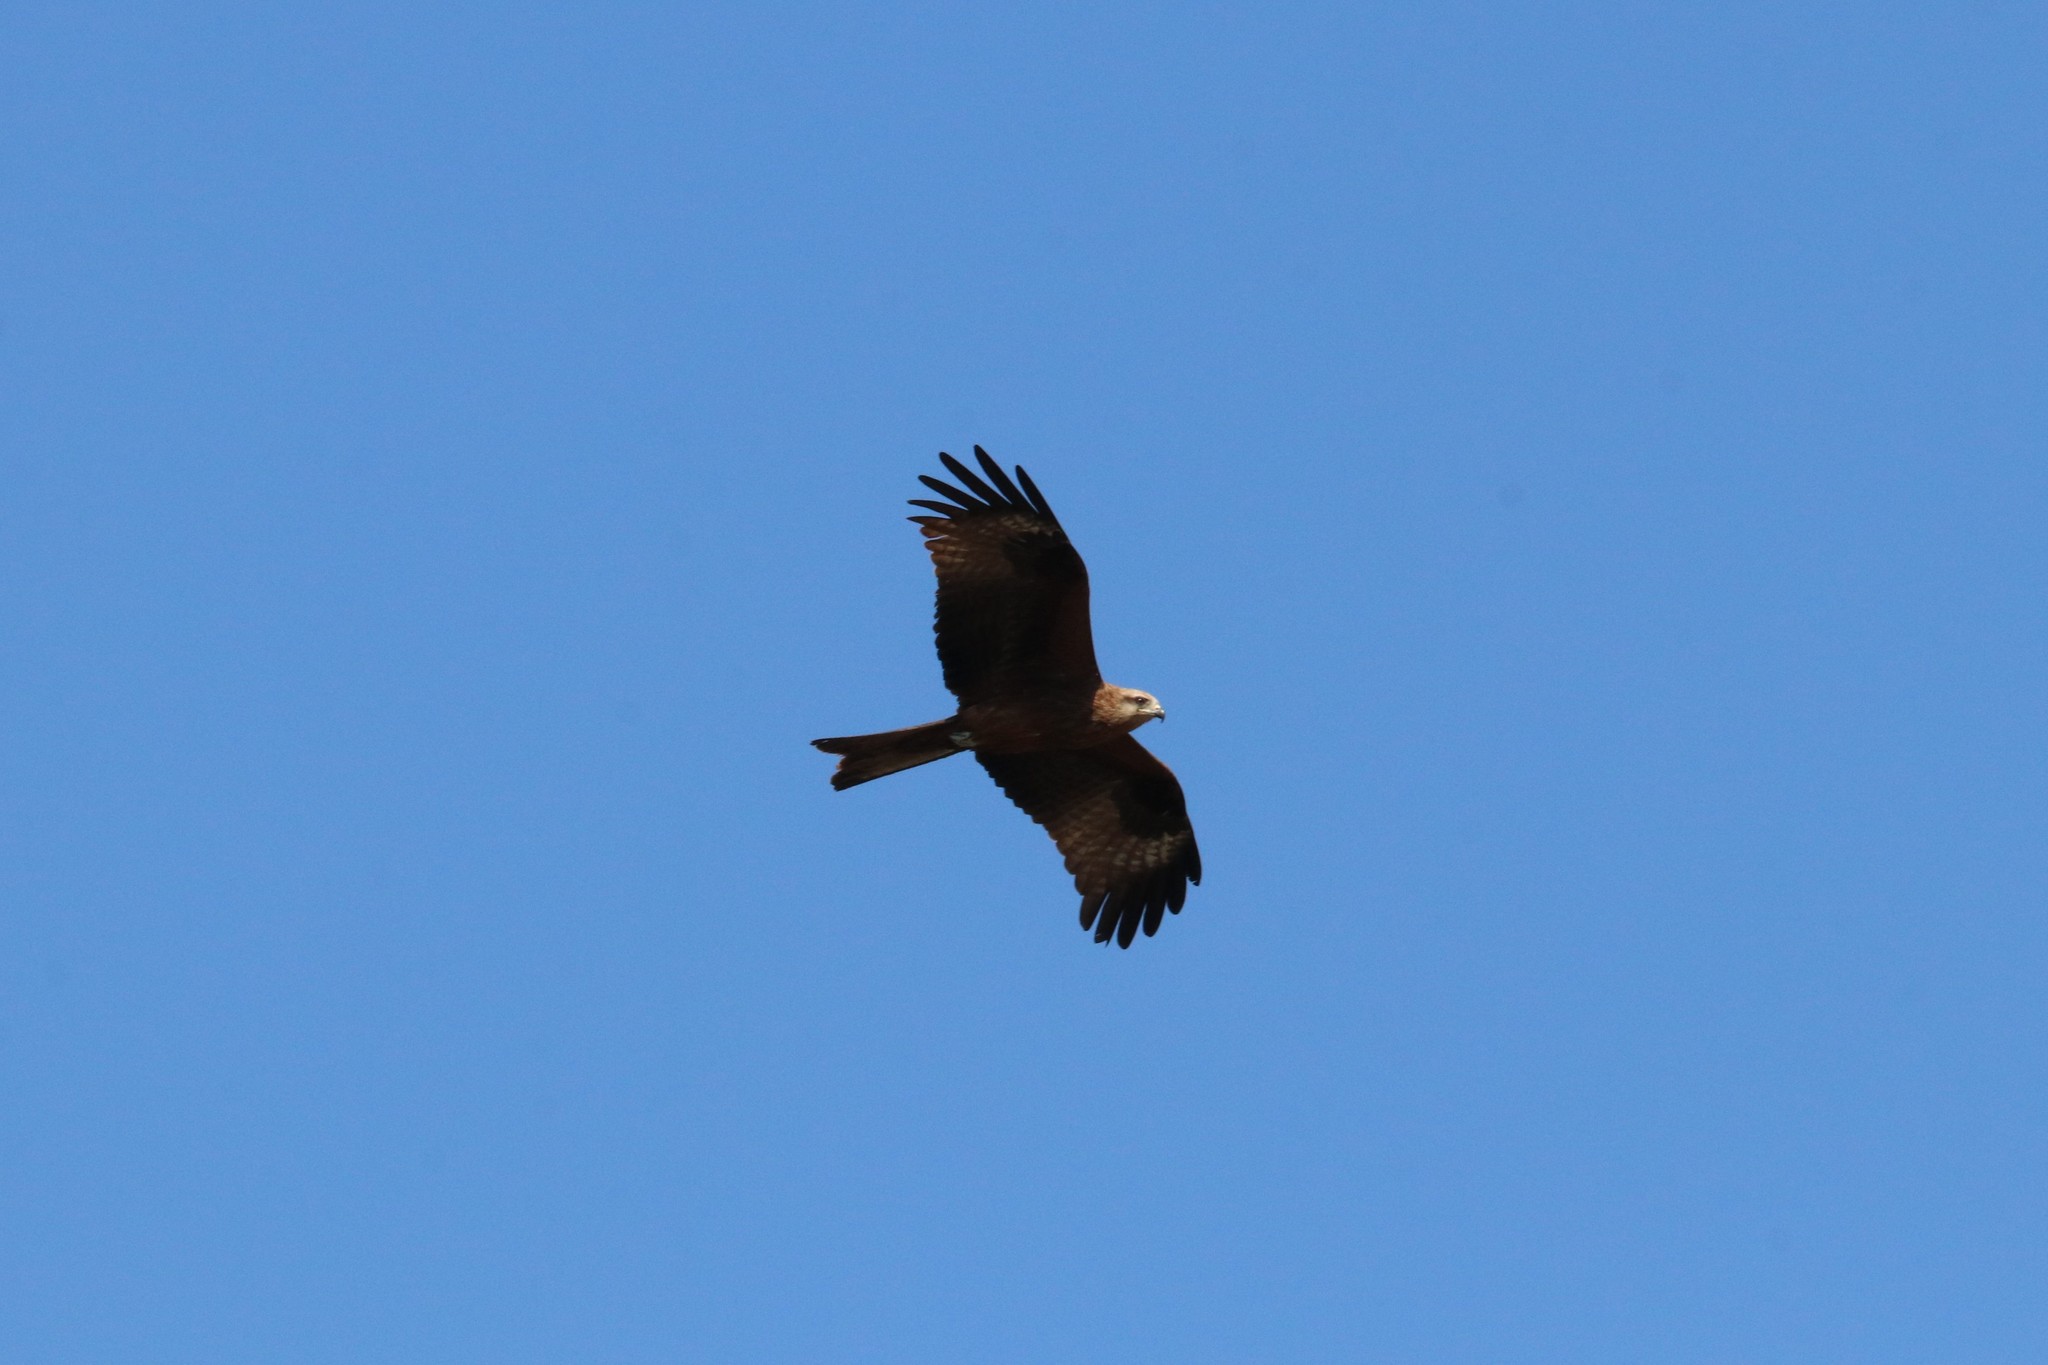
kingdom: Animalia
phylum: Chordata
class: Aves
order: Accipitriformes
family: Accipitridae
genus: Milvus
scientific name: Milvus migrans
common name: Black kite
